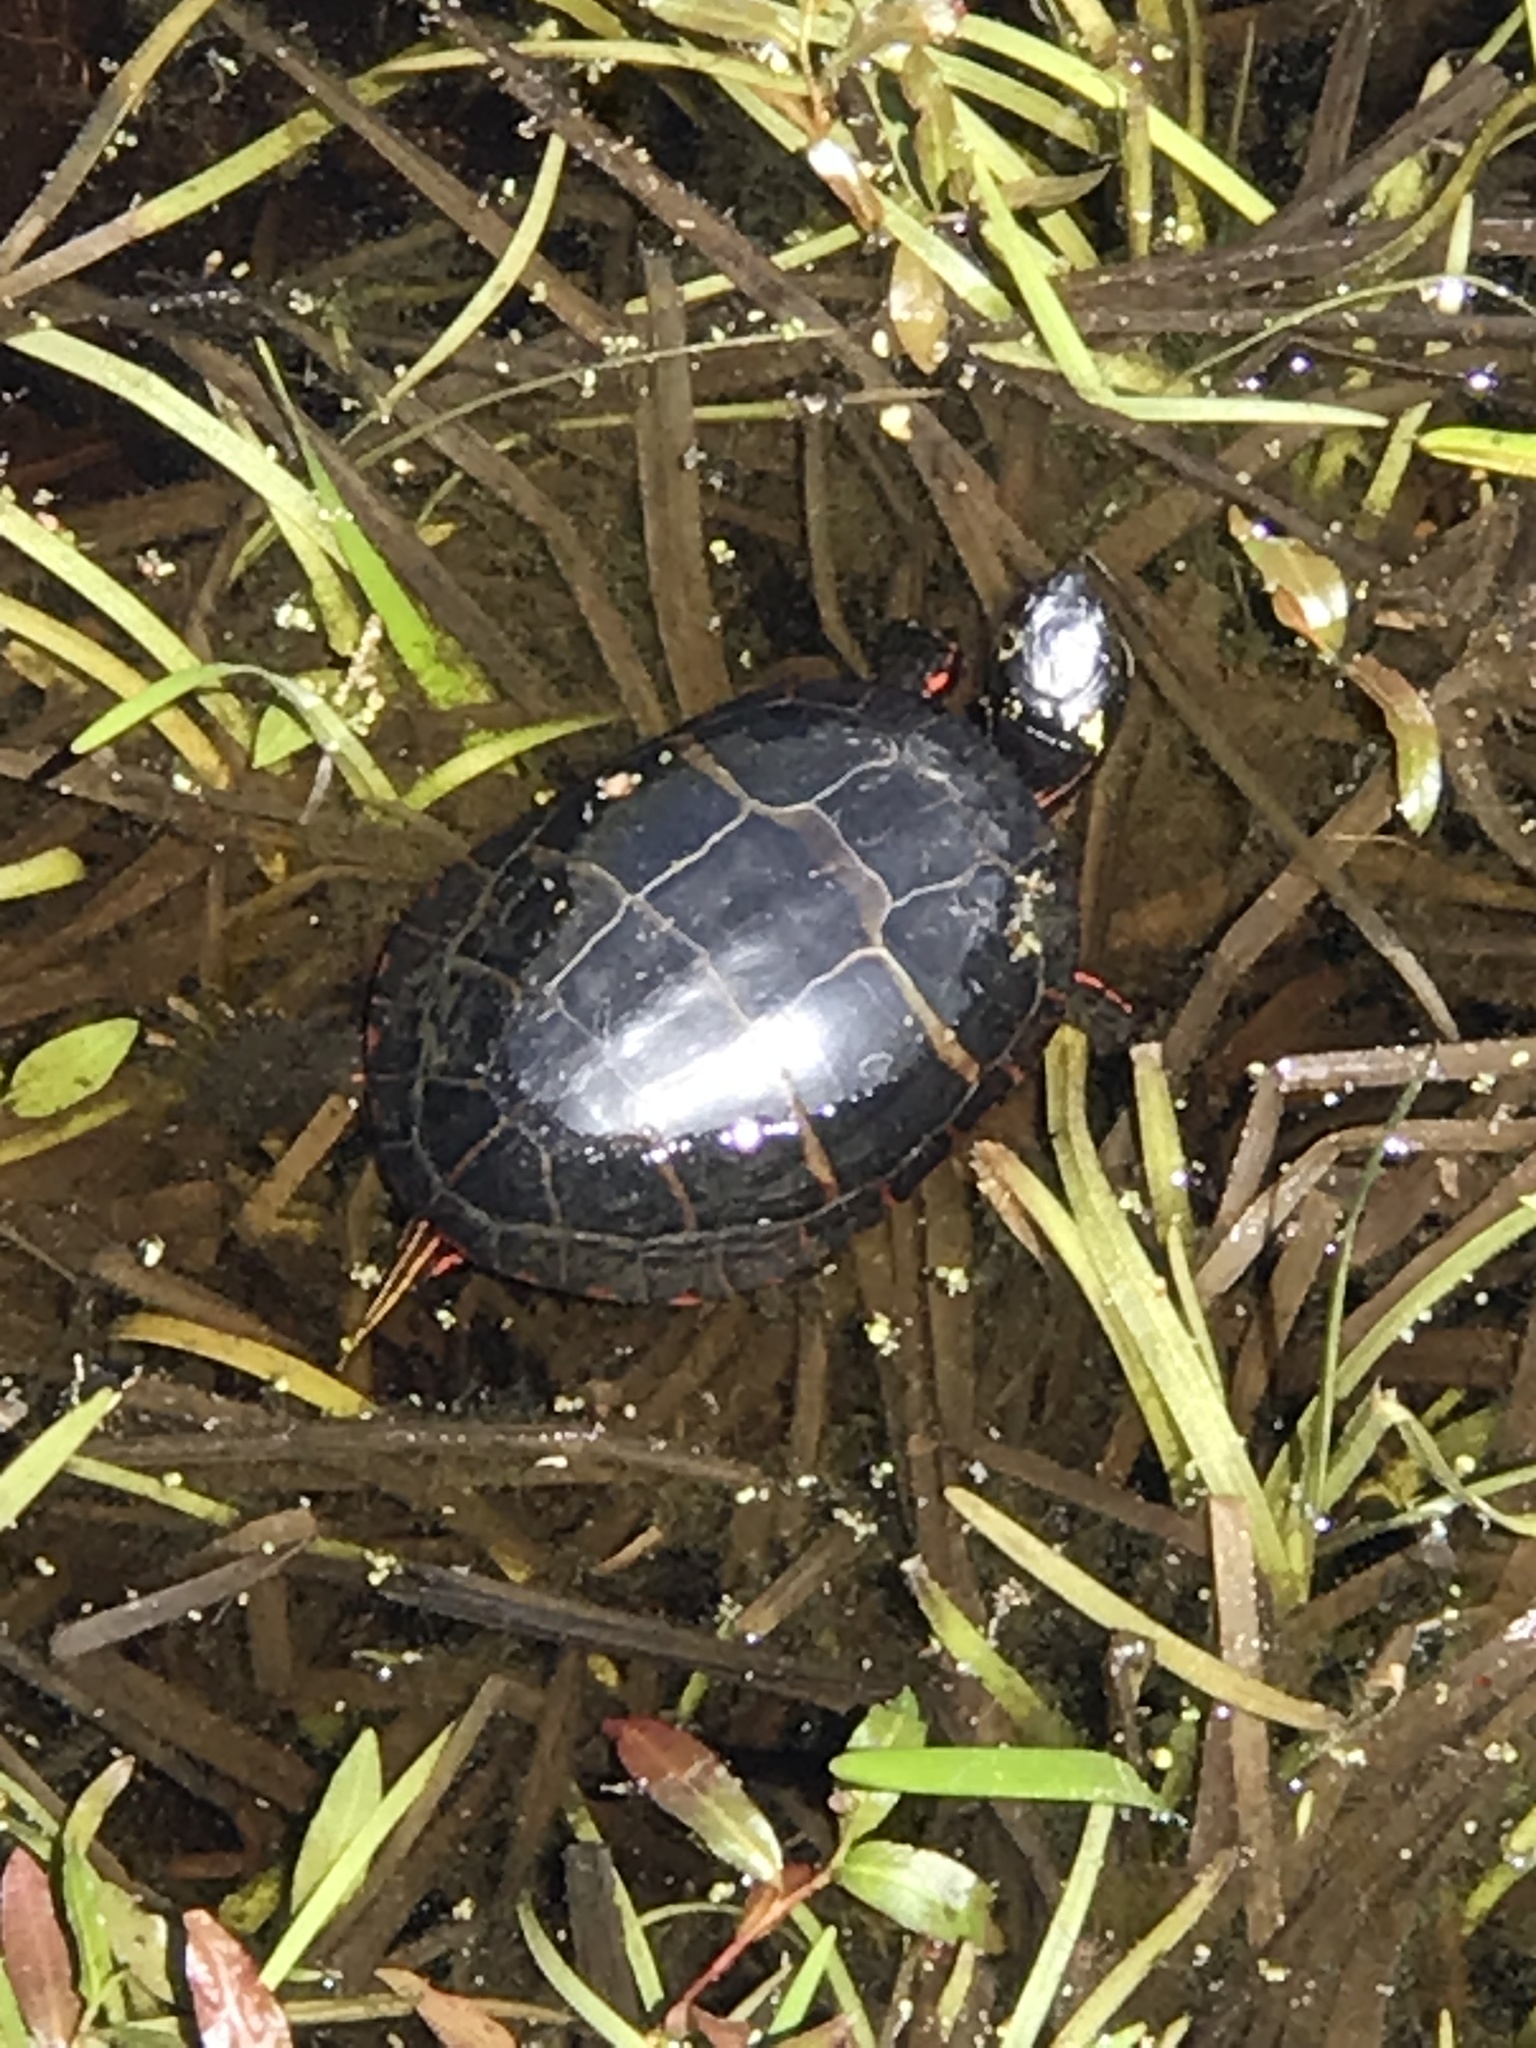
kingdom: Animalia
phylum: Chordata
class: Testudines
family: Emydidae
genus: Chrysemys
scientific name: Chrysemys picta
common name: Painted turtle
